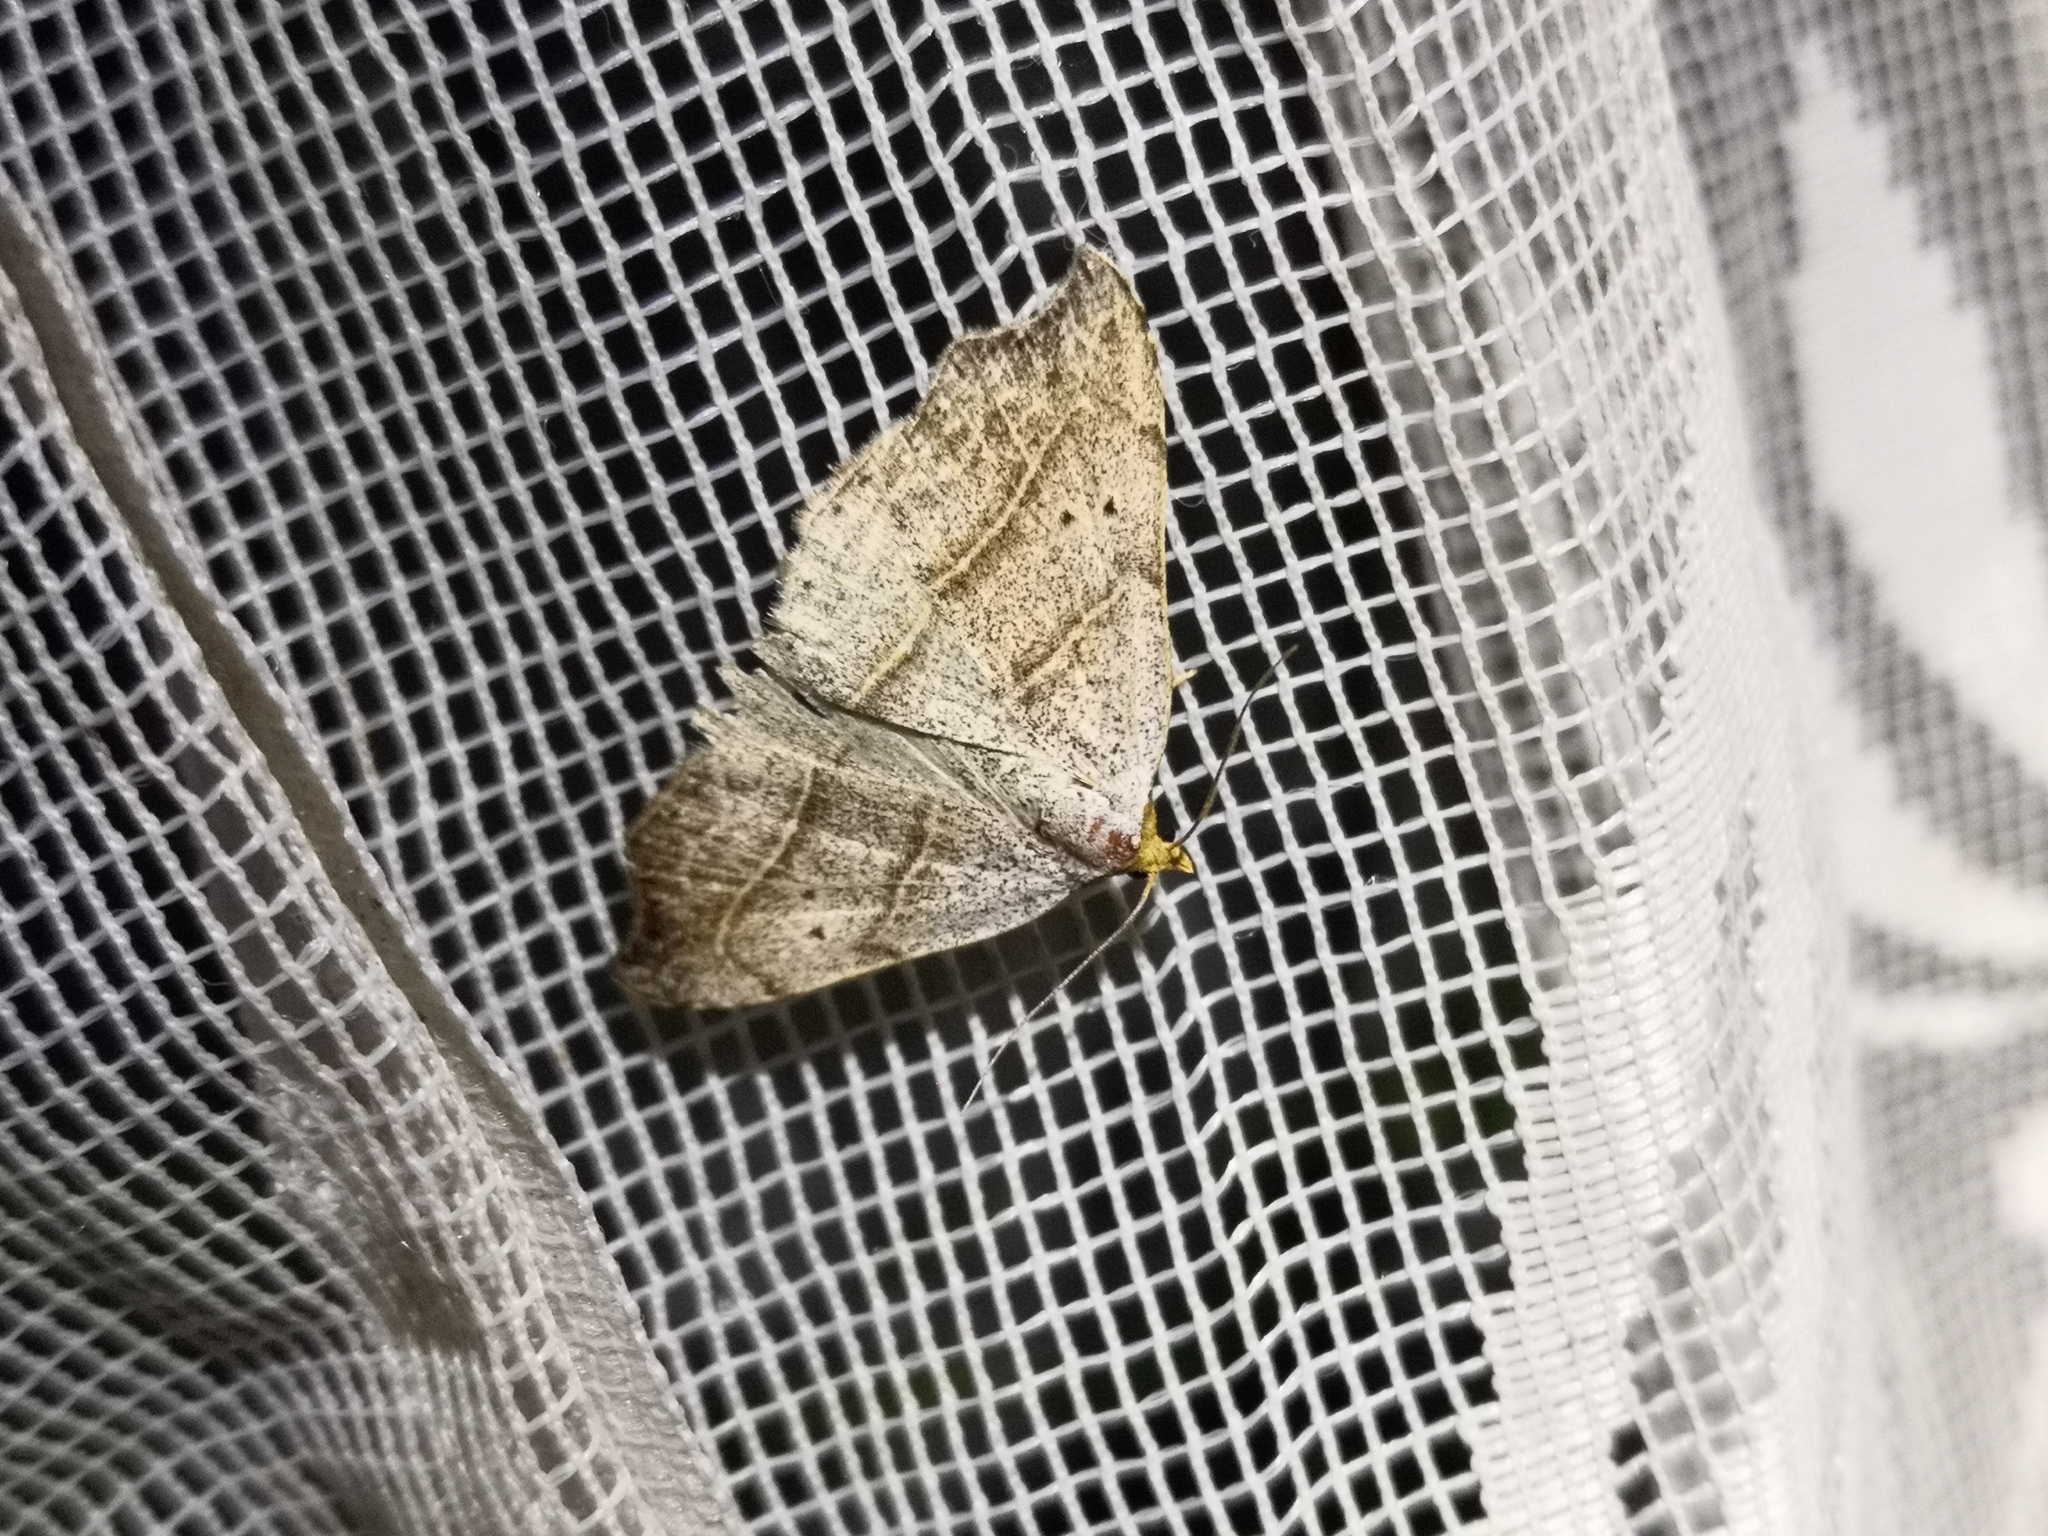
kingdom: Animalia
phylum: Arthropoda
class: Insecta
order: Lepidoptera
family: Erebidae
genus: Laspeyria
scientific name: Laspeyria flexula
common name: Beautiful hook-tip
